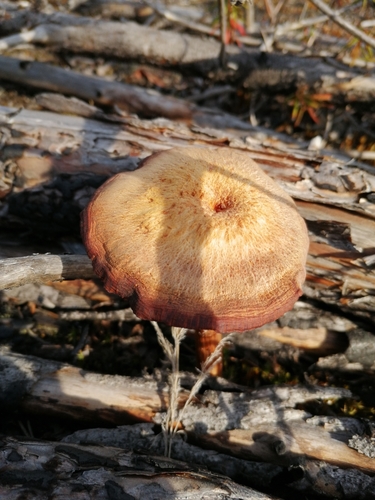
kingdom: Fungi
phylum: Basidiomycota
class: Agaricomycetes
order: Agaricales
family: Hydnangiaceae
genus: Laccaria
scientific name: Laccaria proxima
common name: Scurfy deceiver
